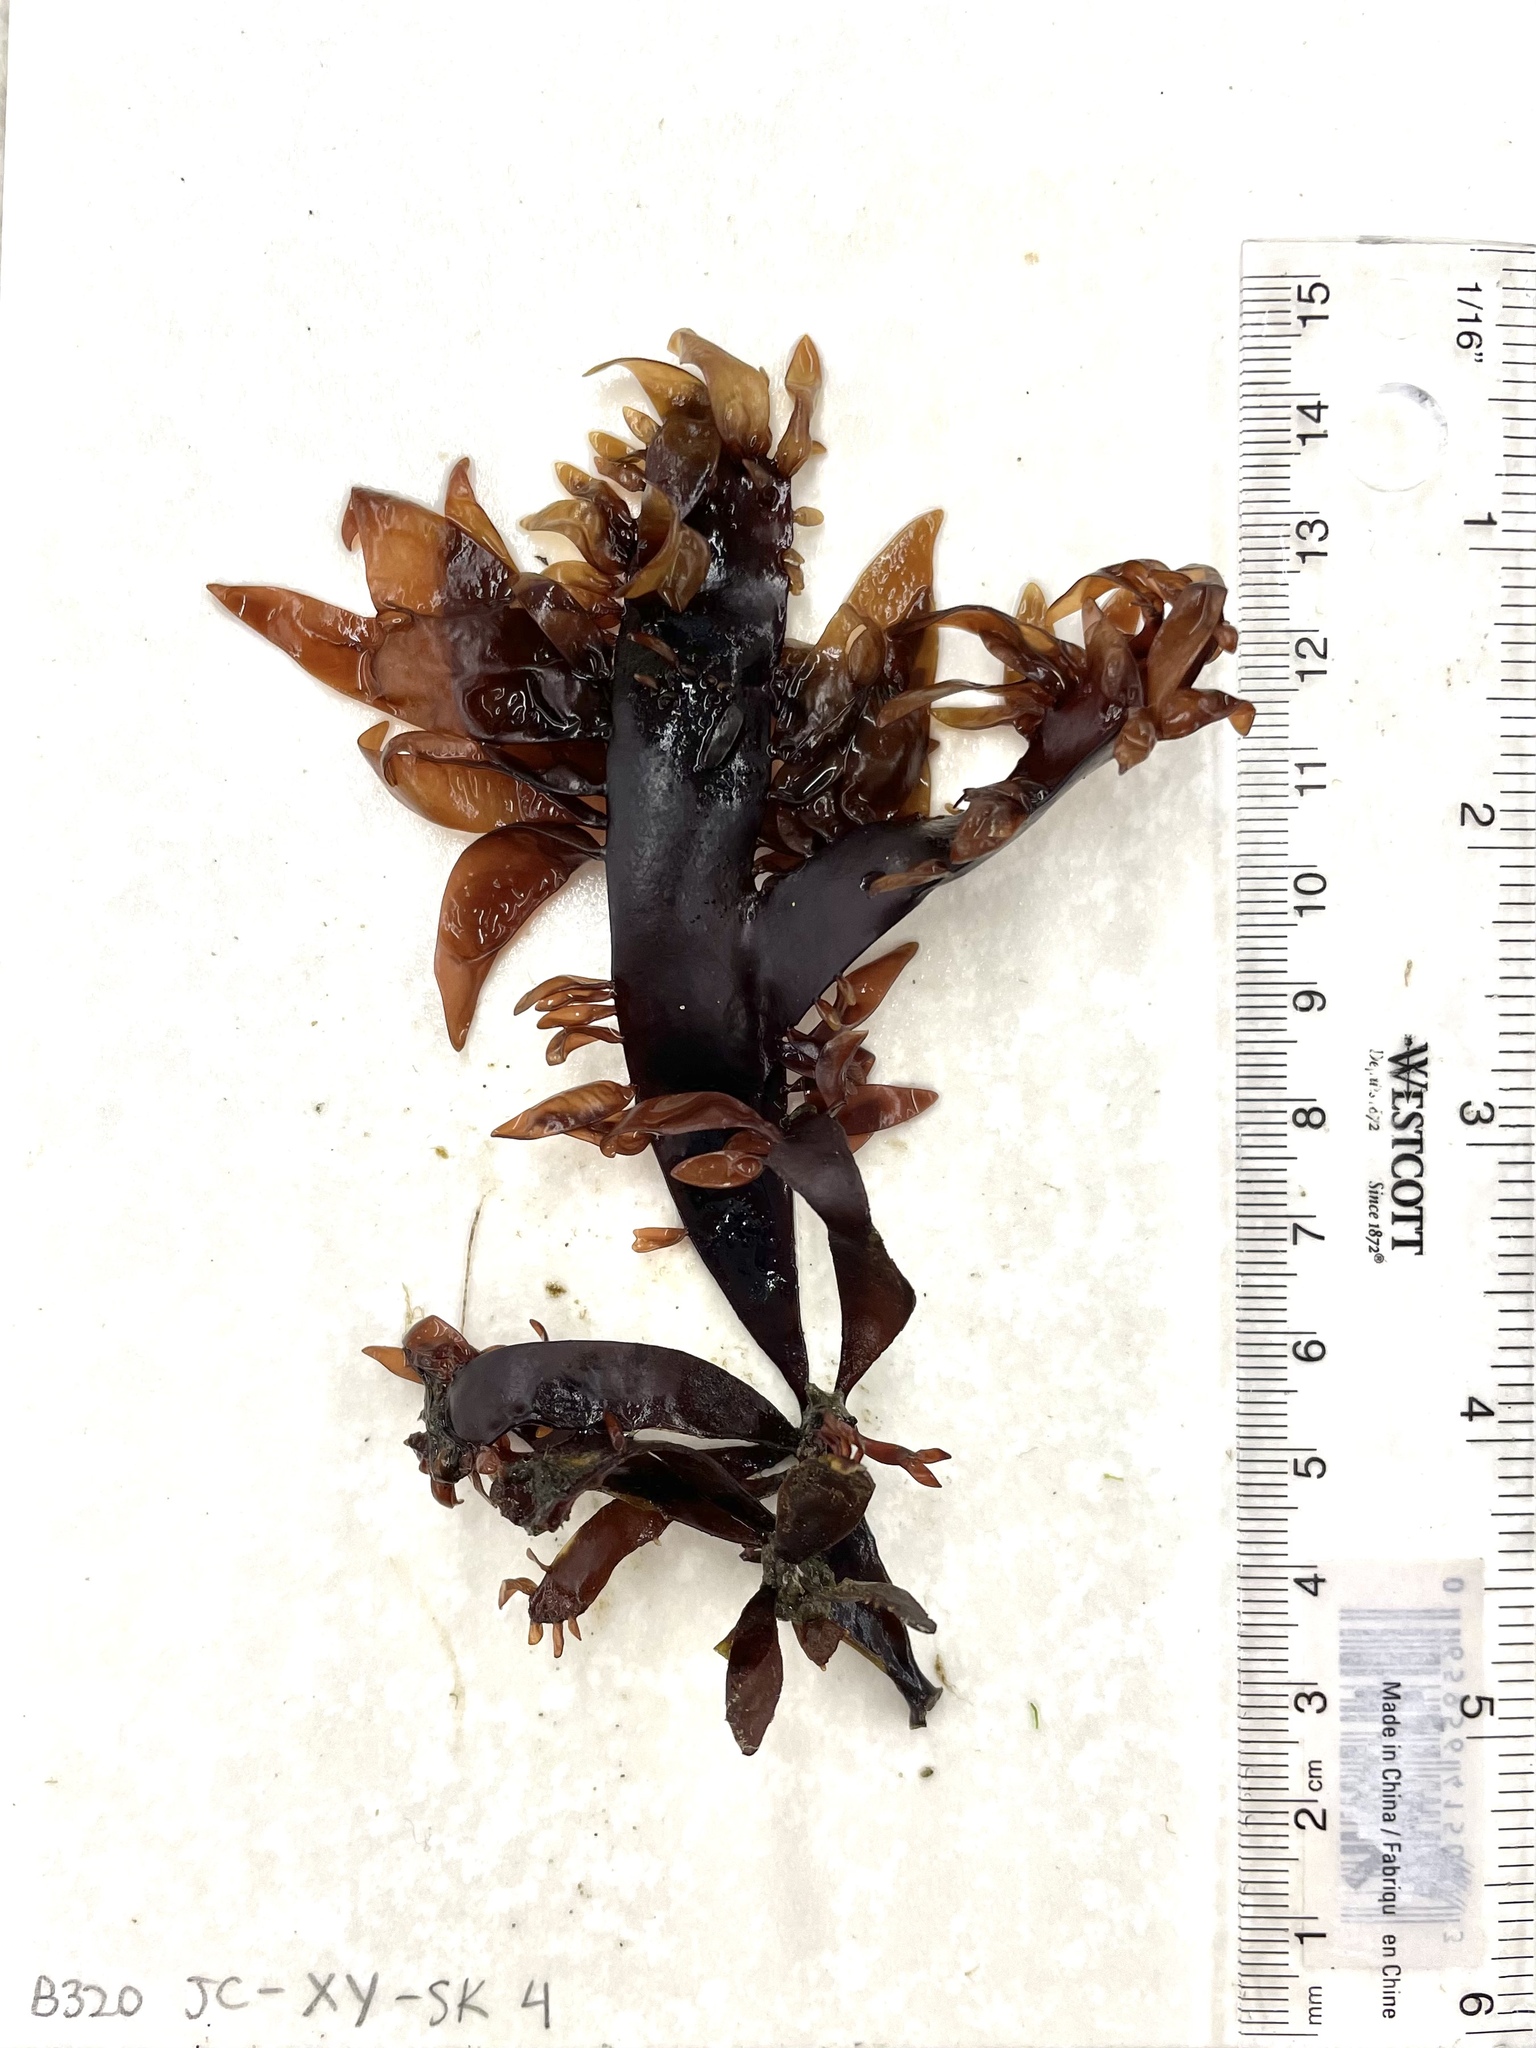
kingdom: Plantae
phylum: Rhodophyta
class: Florideophyceae
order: Halymeniales
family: Halymeniaceae
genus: Grateloupia
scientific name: Grateloupia Prionitis sternbergii
